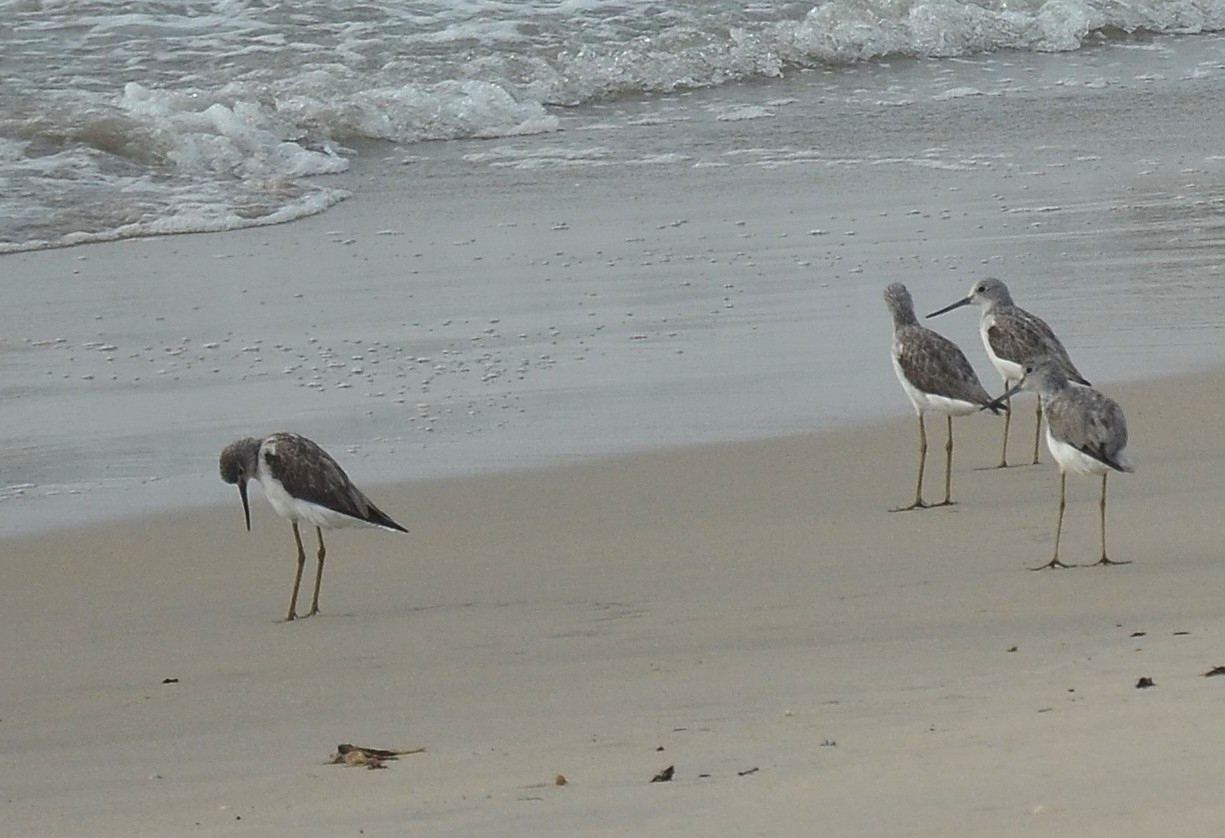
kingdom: Animalia
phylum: Chordata
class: Aves
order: Charadriiformes
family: Scolopacidae
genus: Tringa
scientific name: Tringa nebularia
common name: Common greenshank
